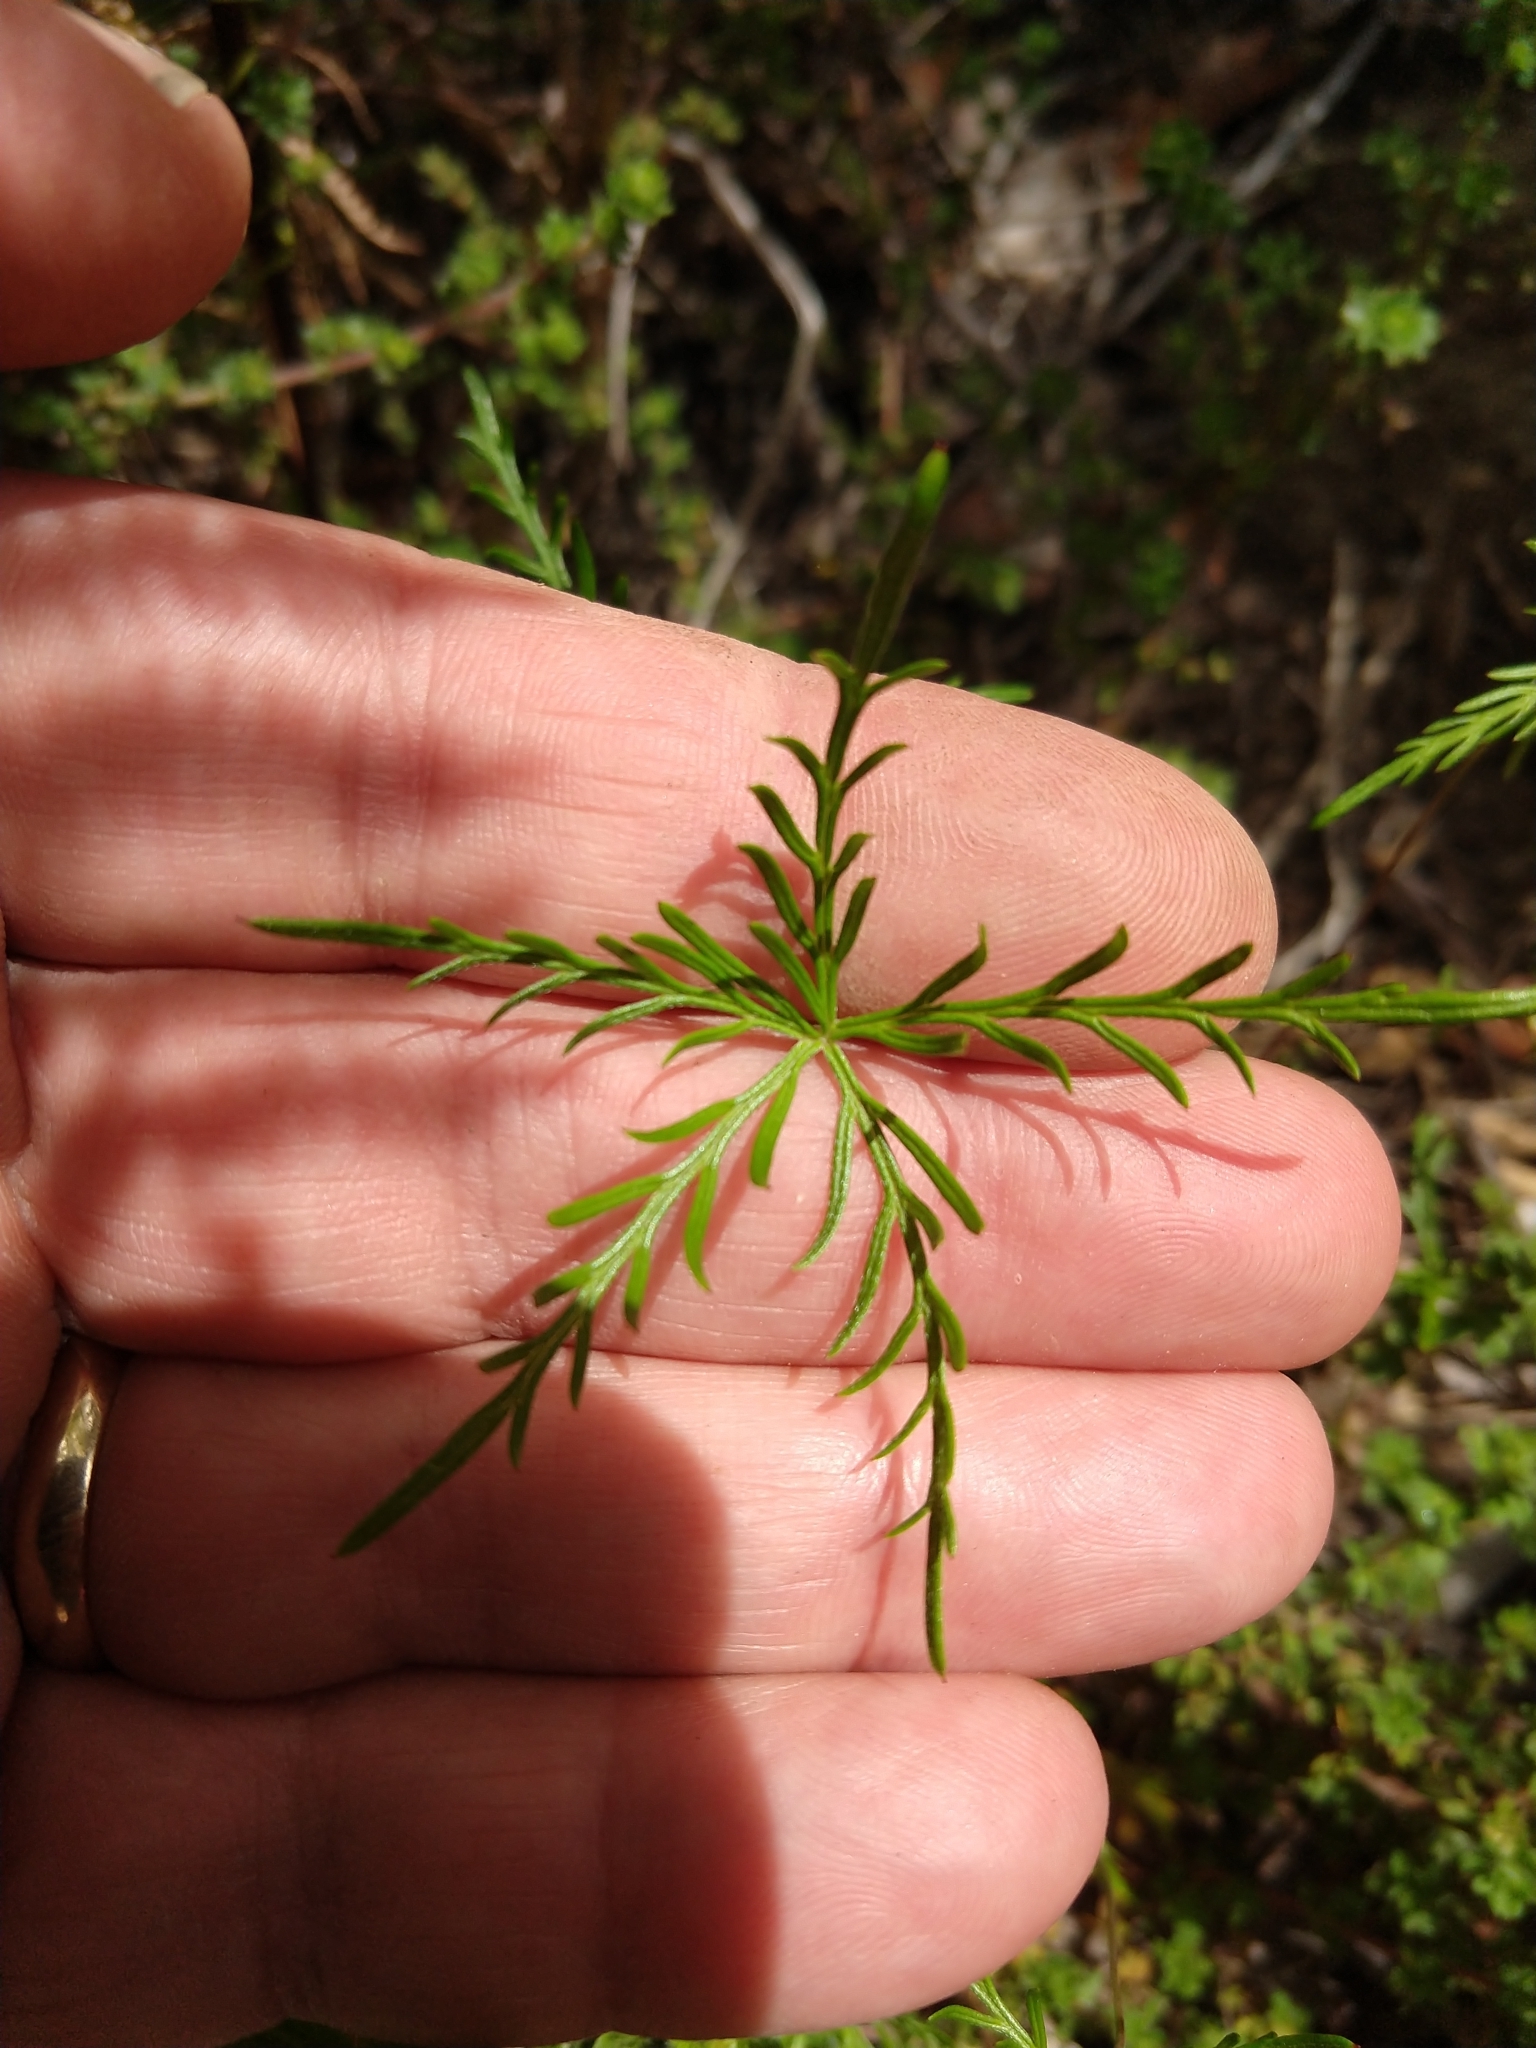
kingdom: Plantae
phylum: Tracheophyta
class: Magnoliopsida
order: Geraniales
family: Geraniaceae
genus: Geranium
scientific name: Geranium incanum
